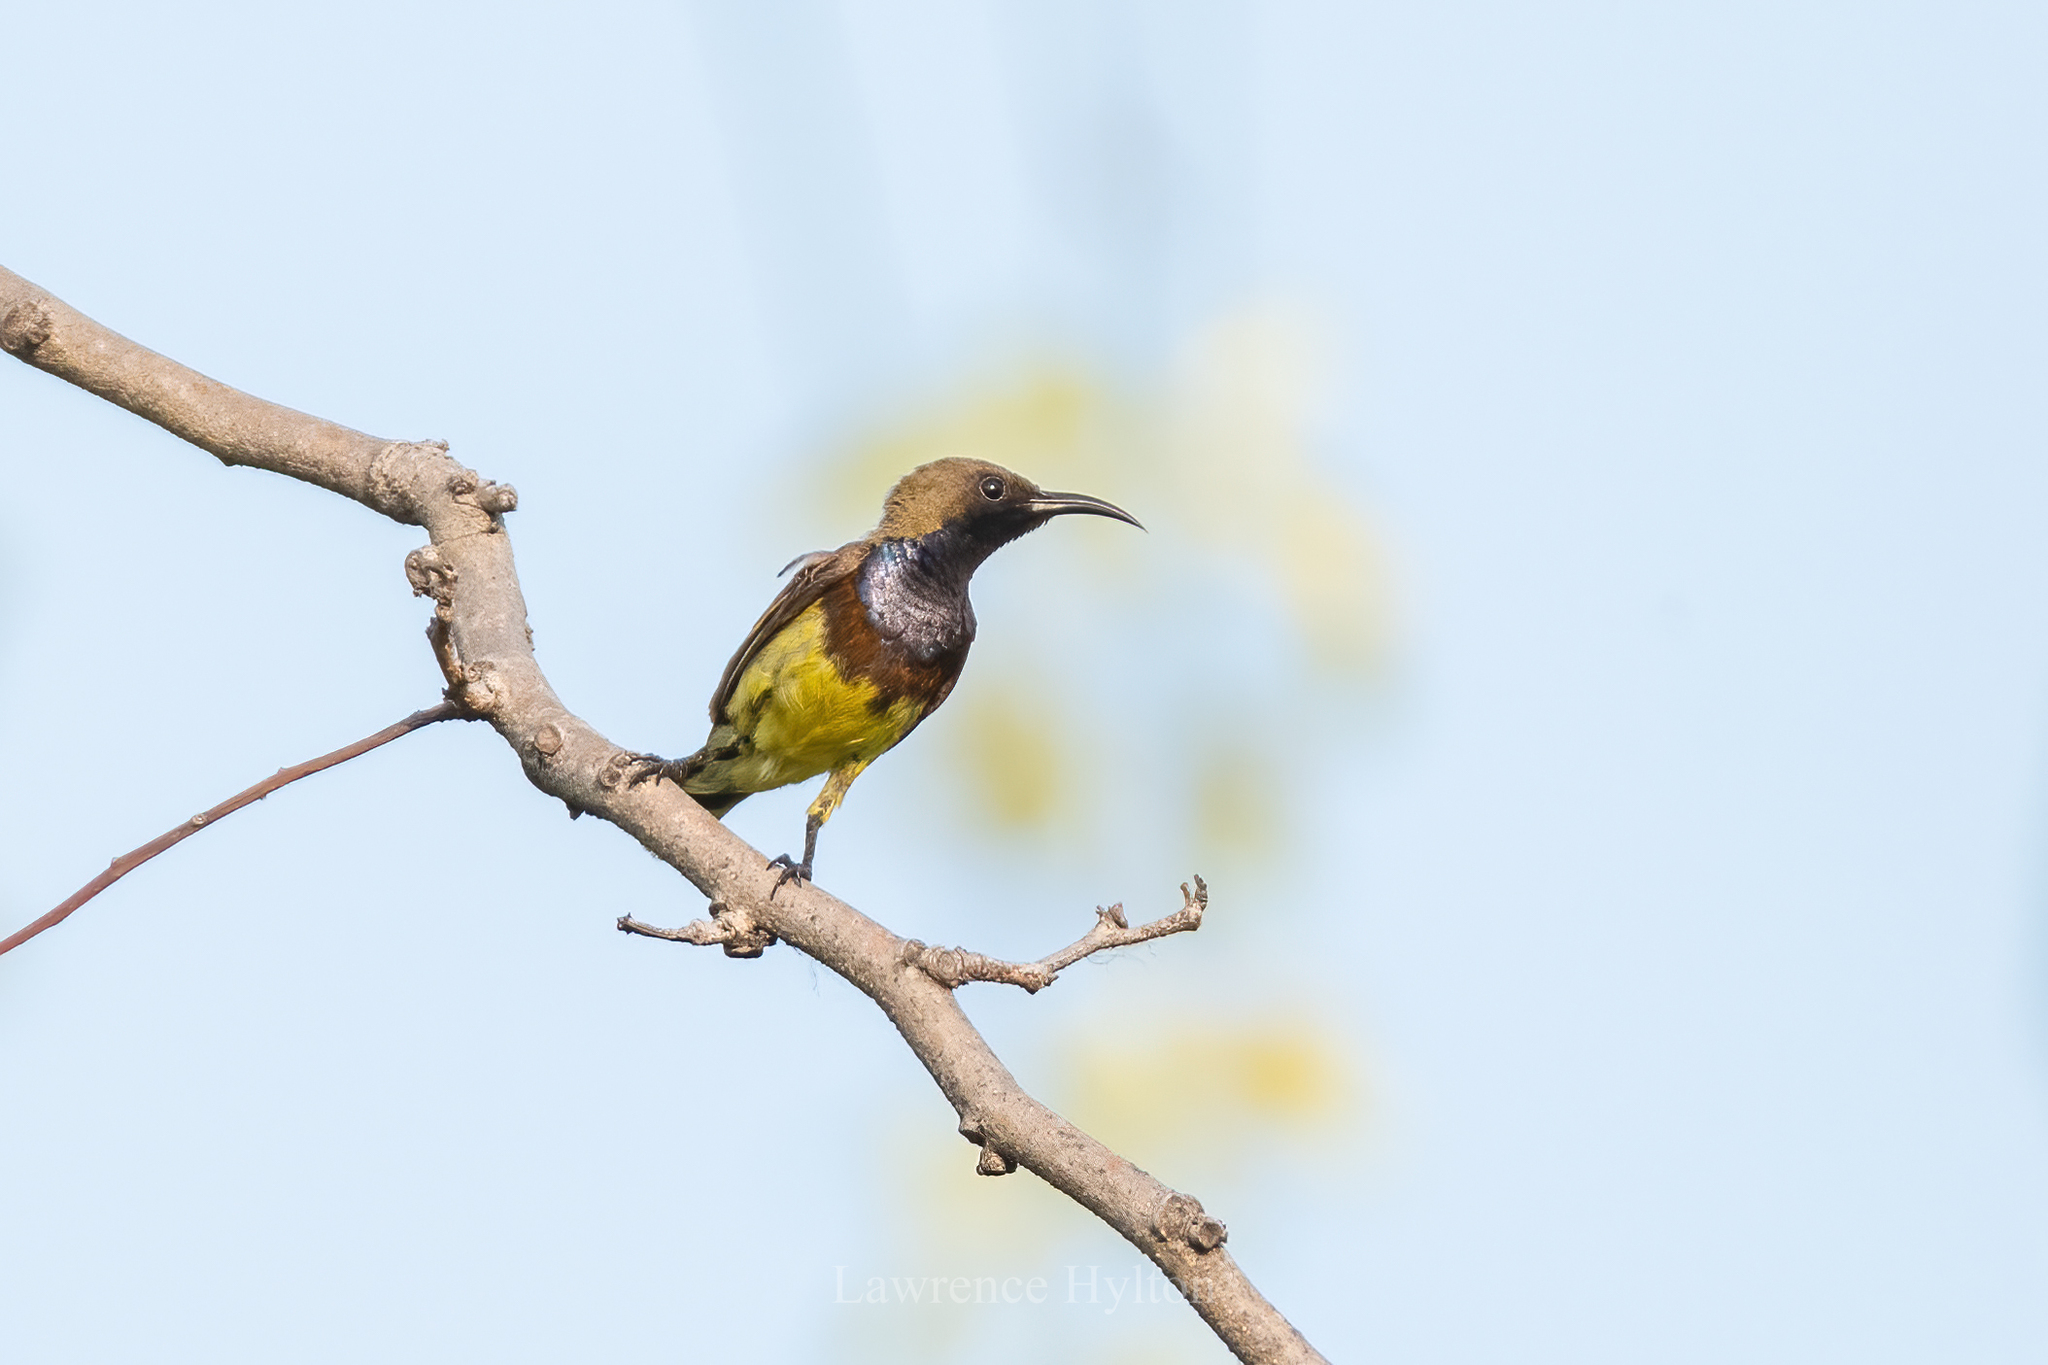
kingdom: Animalia
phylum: Chordata
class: Aves
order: Passeriformes
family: Nectariniidae
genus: Cinnyris
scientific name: Cinnyris
